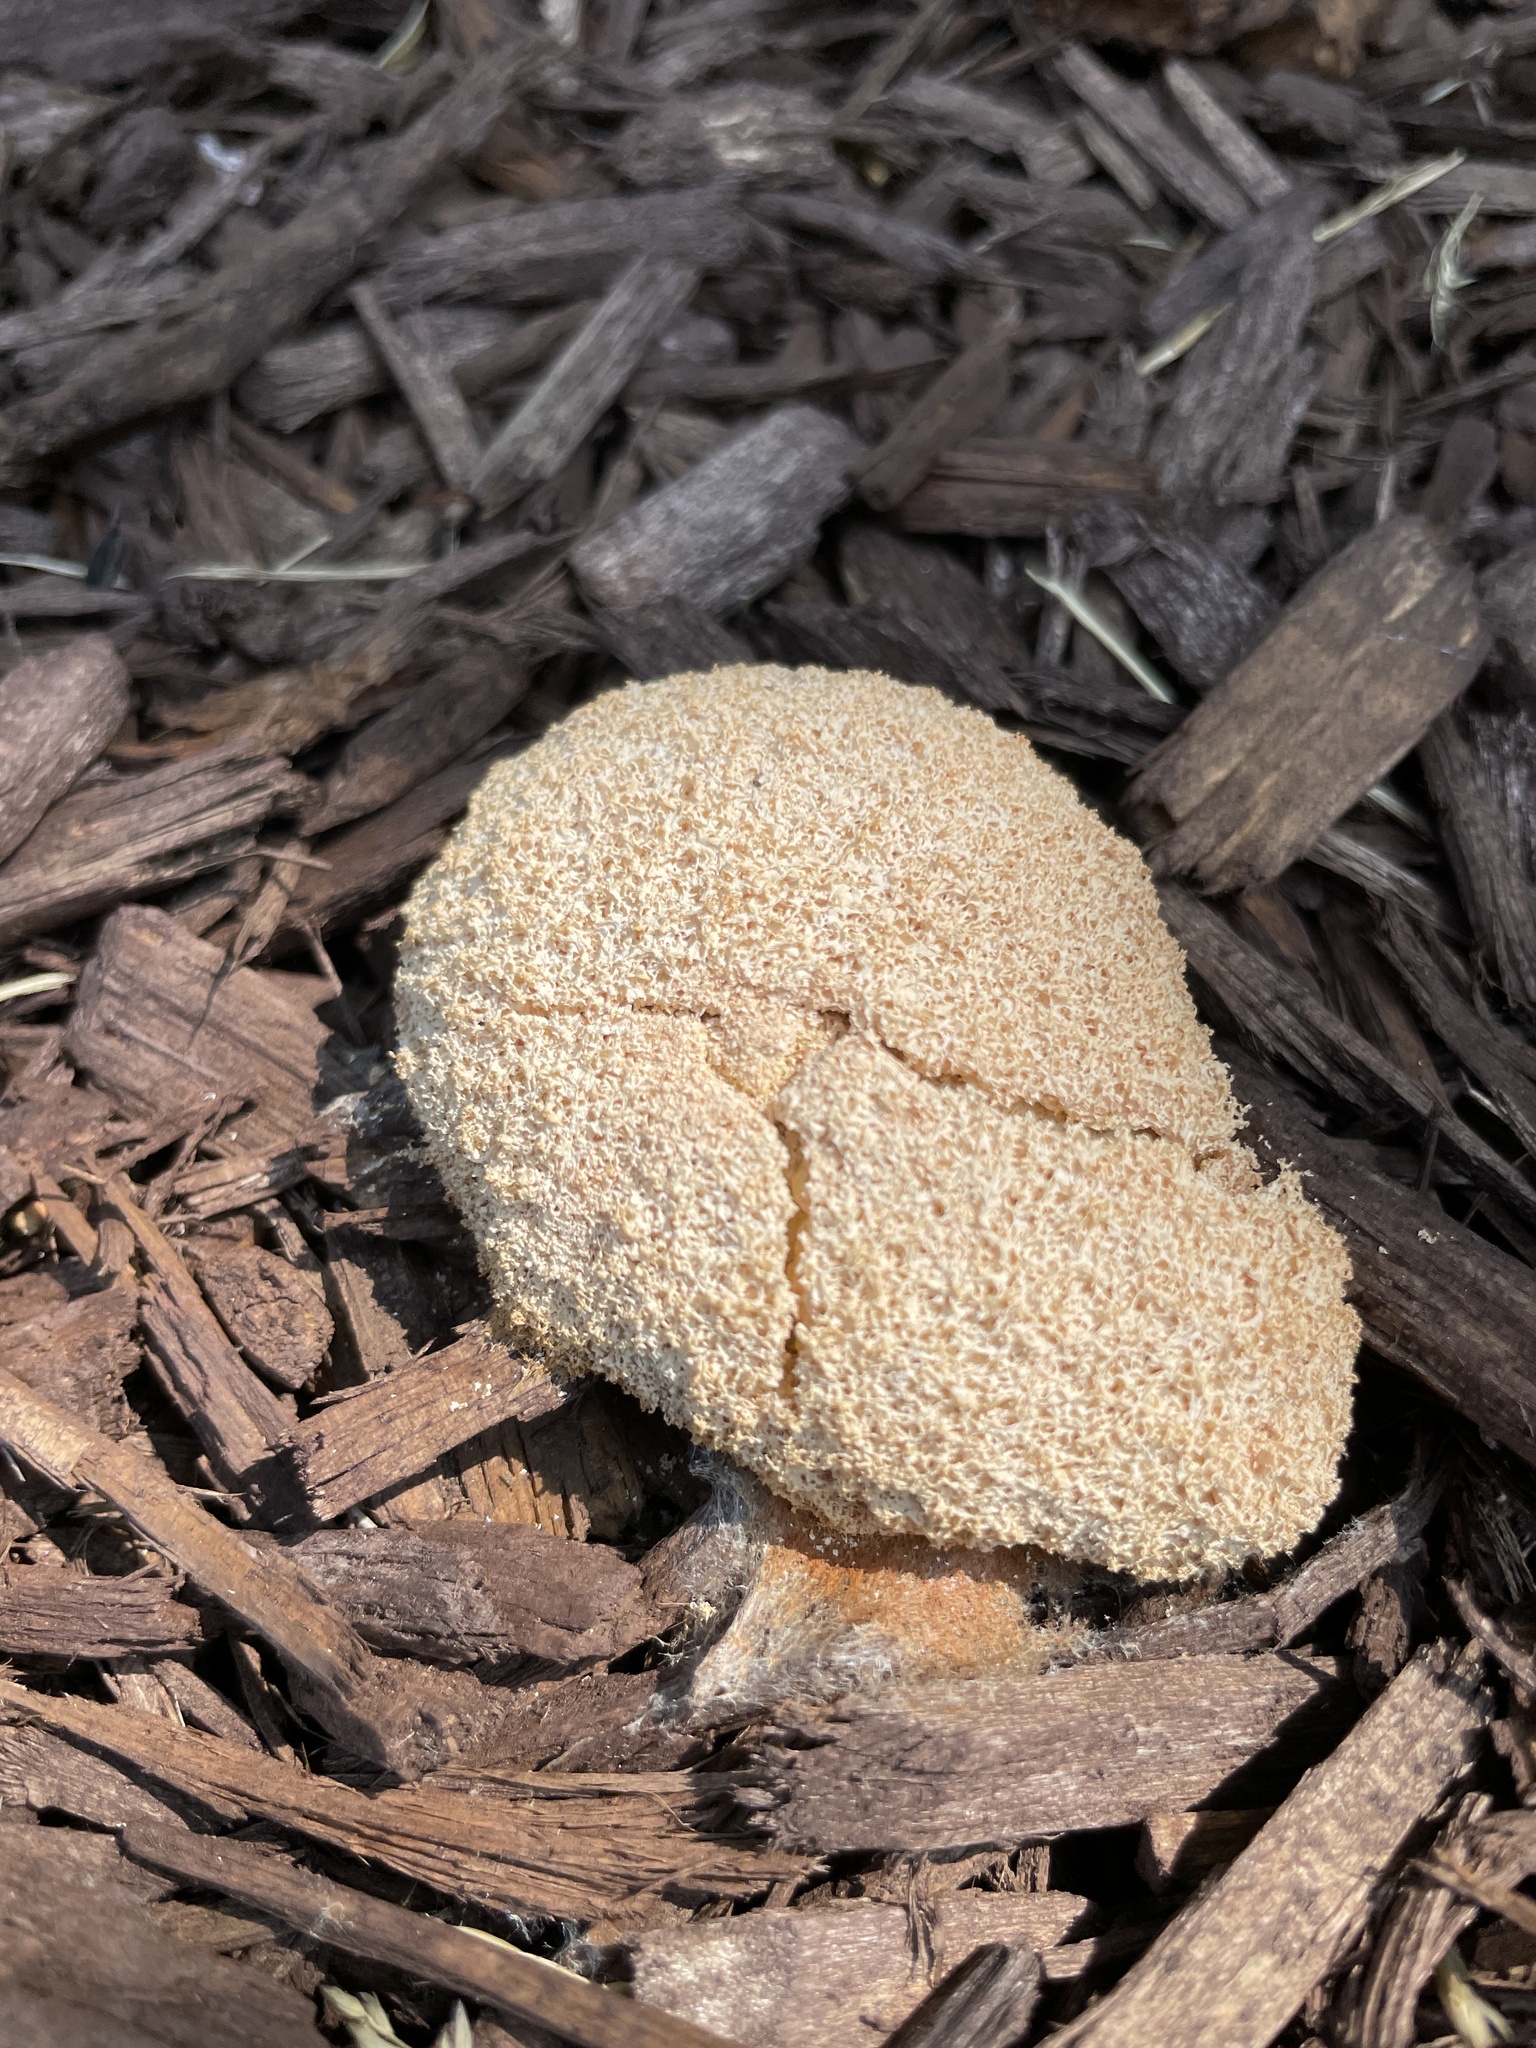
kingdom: Protozoa
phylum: Mycetozoa
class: Myxomycetes
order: Physarales
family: Physaraceae
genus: Fuligo
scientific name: Fuligo septica
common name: Dog vomit slime mold
